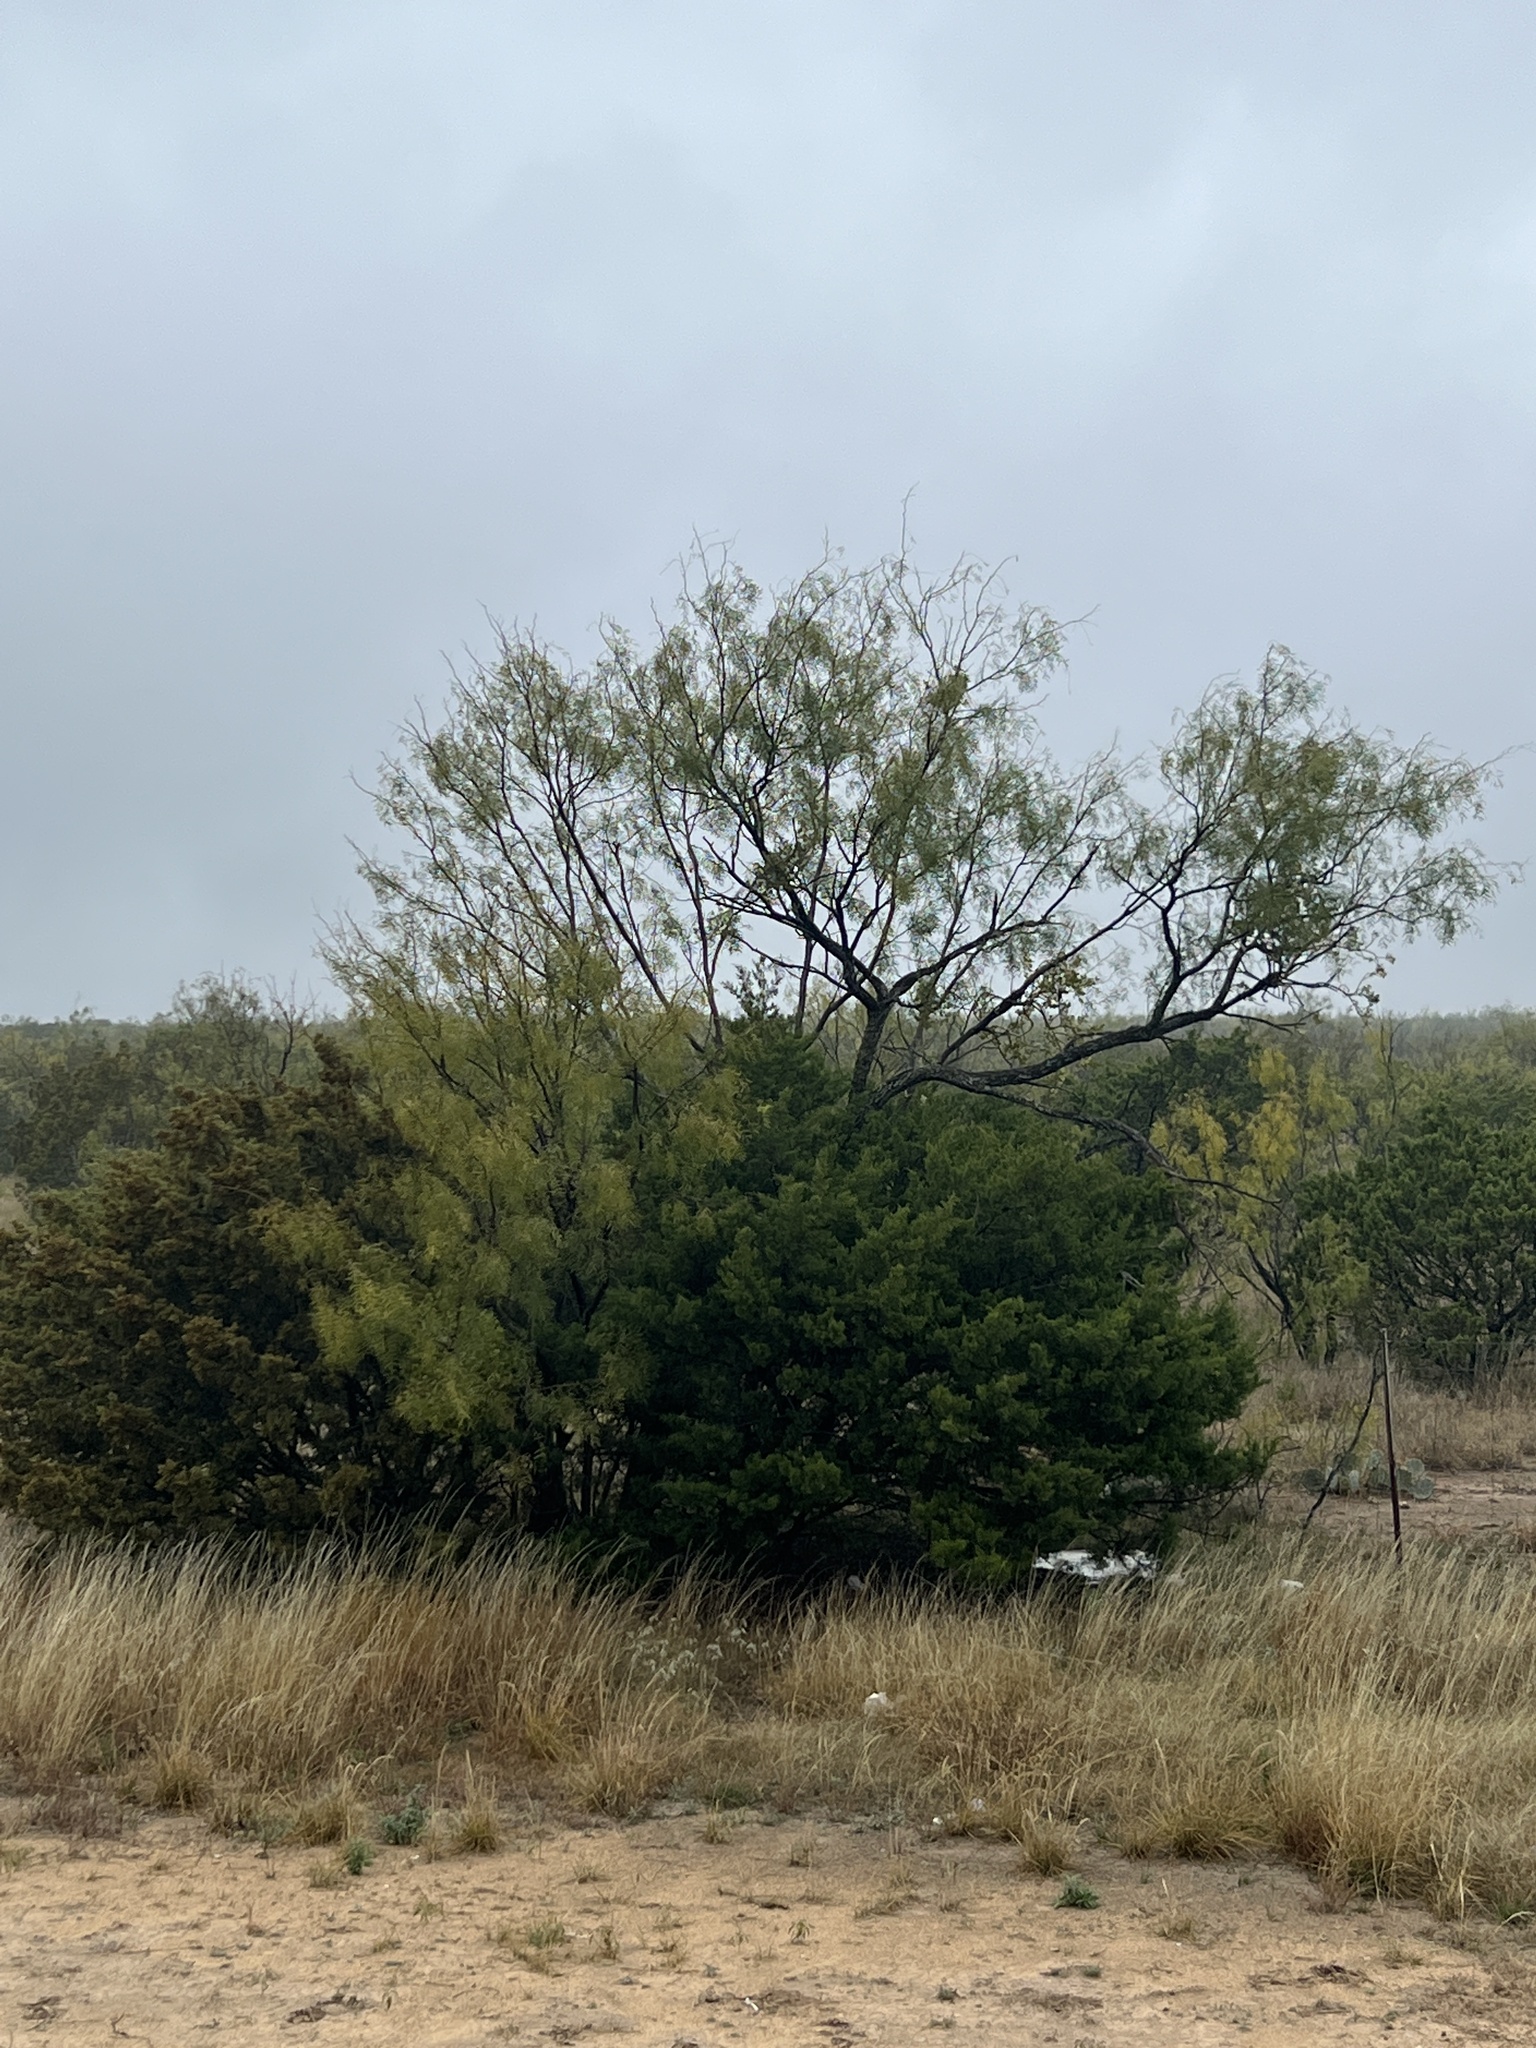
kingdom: Plantae
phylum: Tracheophyta
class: Magnoliopsida
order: Fabales
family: Fabaceae
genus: Prosopis
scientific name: Prosopis glandulosa
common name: Honey mesquite
